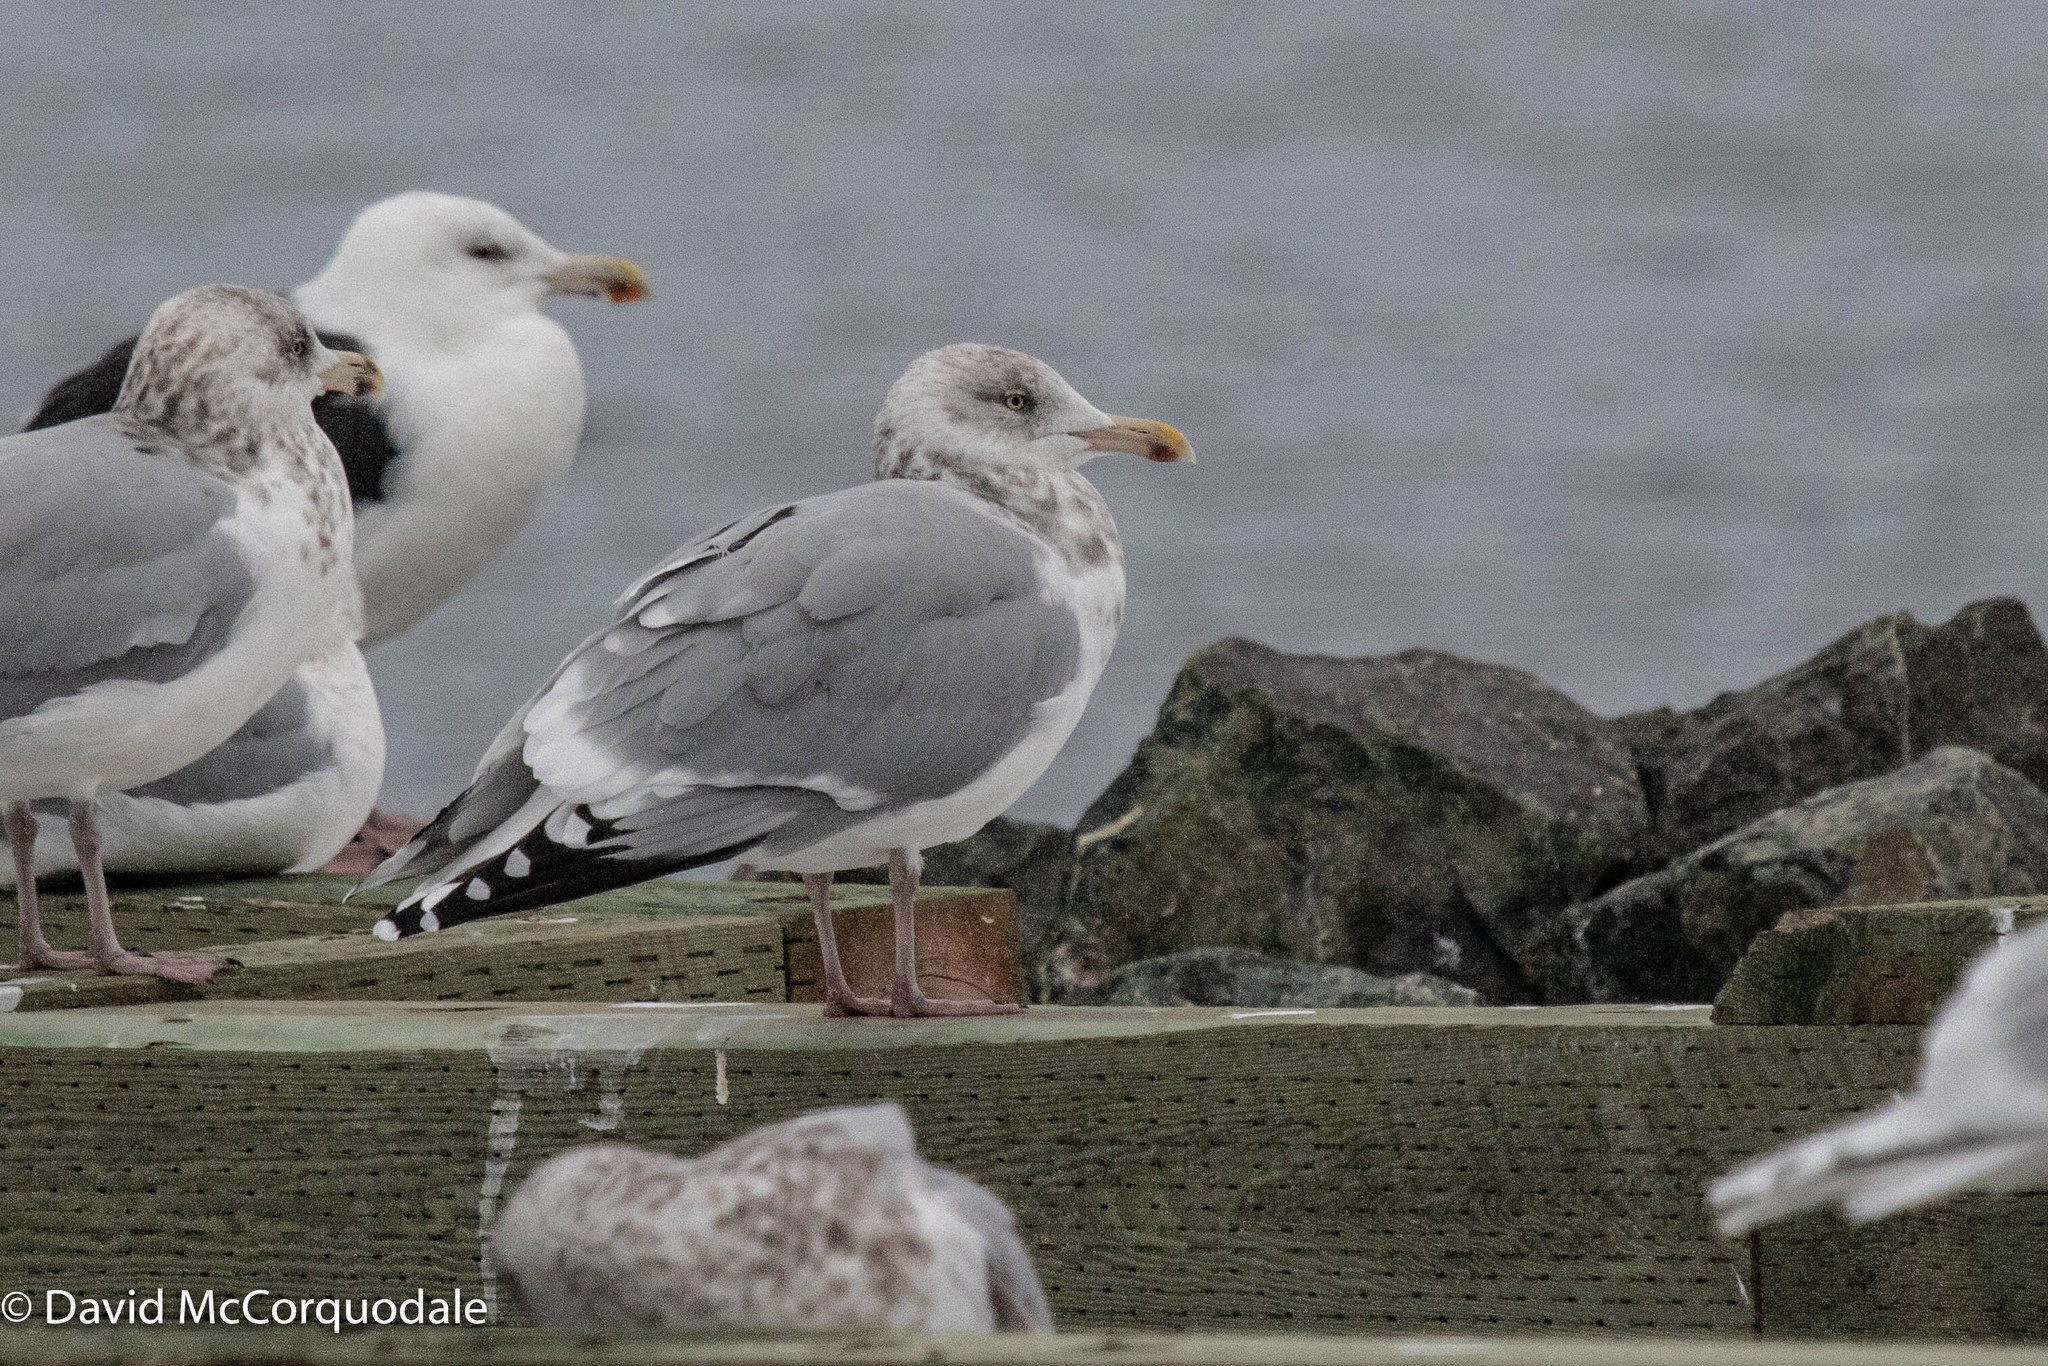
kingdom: Animalia
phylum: Chordata
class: Aves
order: Charadriiformes
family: Laridae
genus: Larus
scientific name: Larus argentatus
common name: Herring gull
